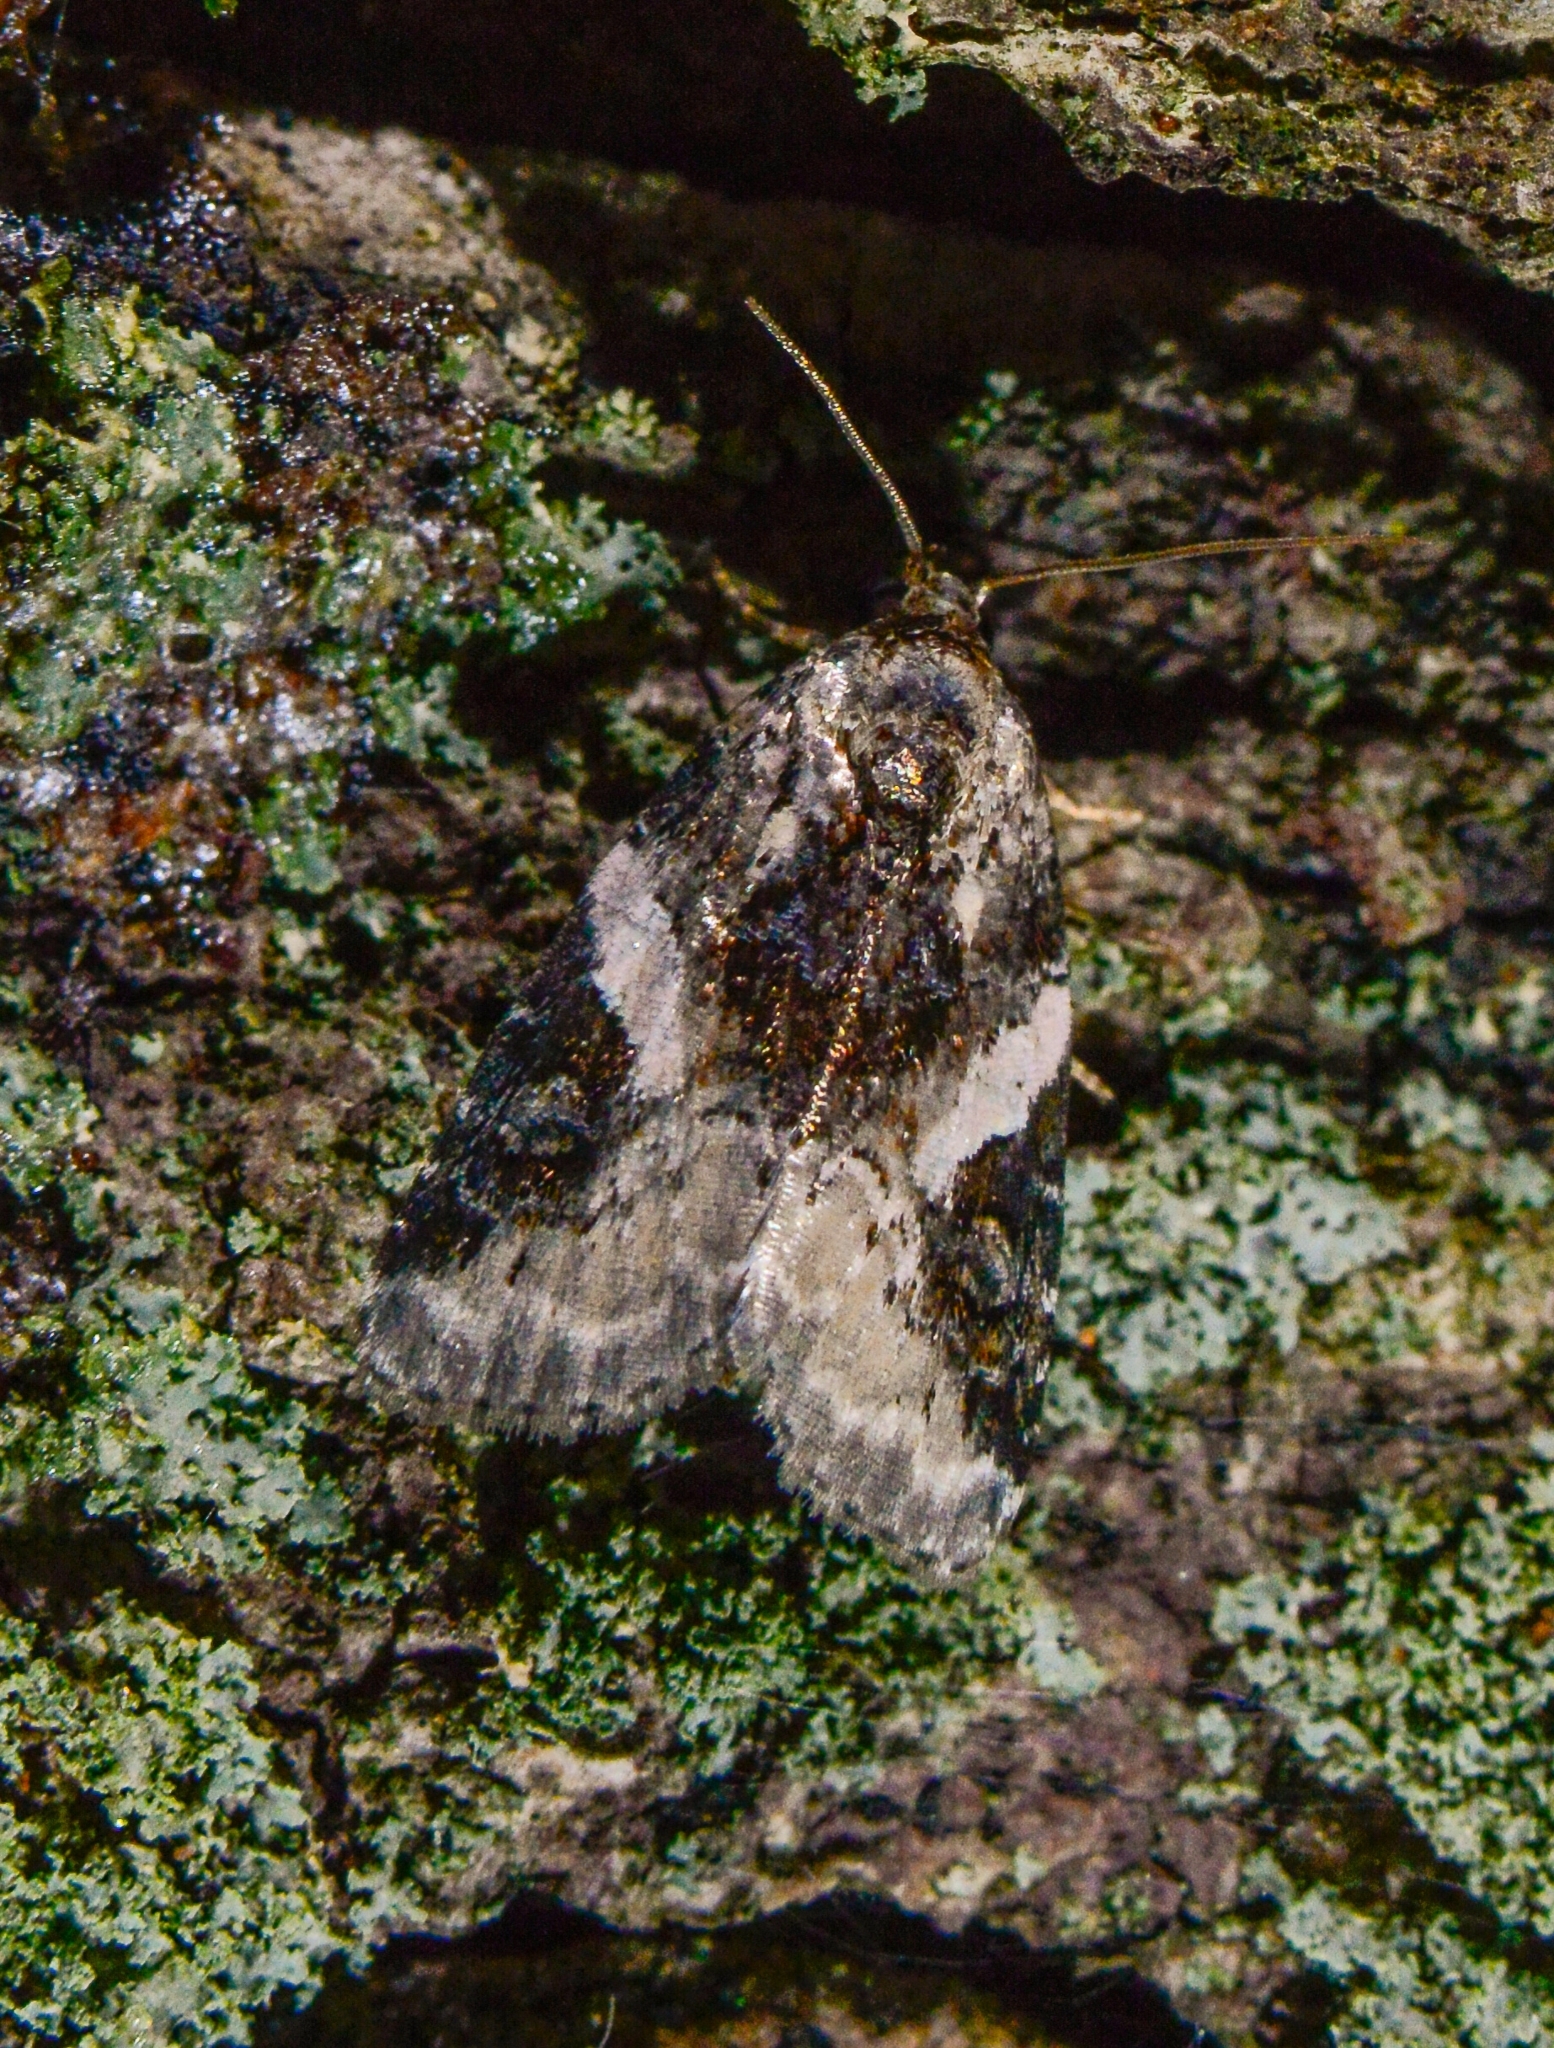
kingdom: Animalia
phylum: Arthropoda
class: Insecta
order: Lepidoptera
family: Noctuidae
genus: Pseudeustrotia
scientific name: Pseudeustrotia carneola
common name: Pink-barred lithacodia moth
